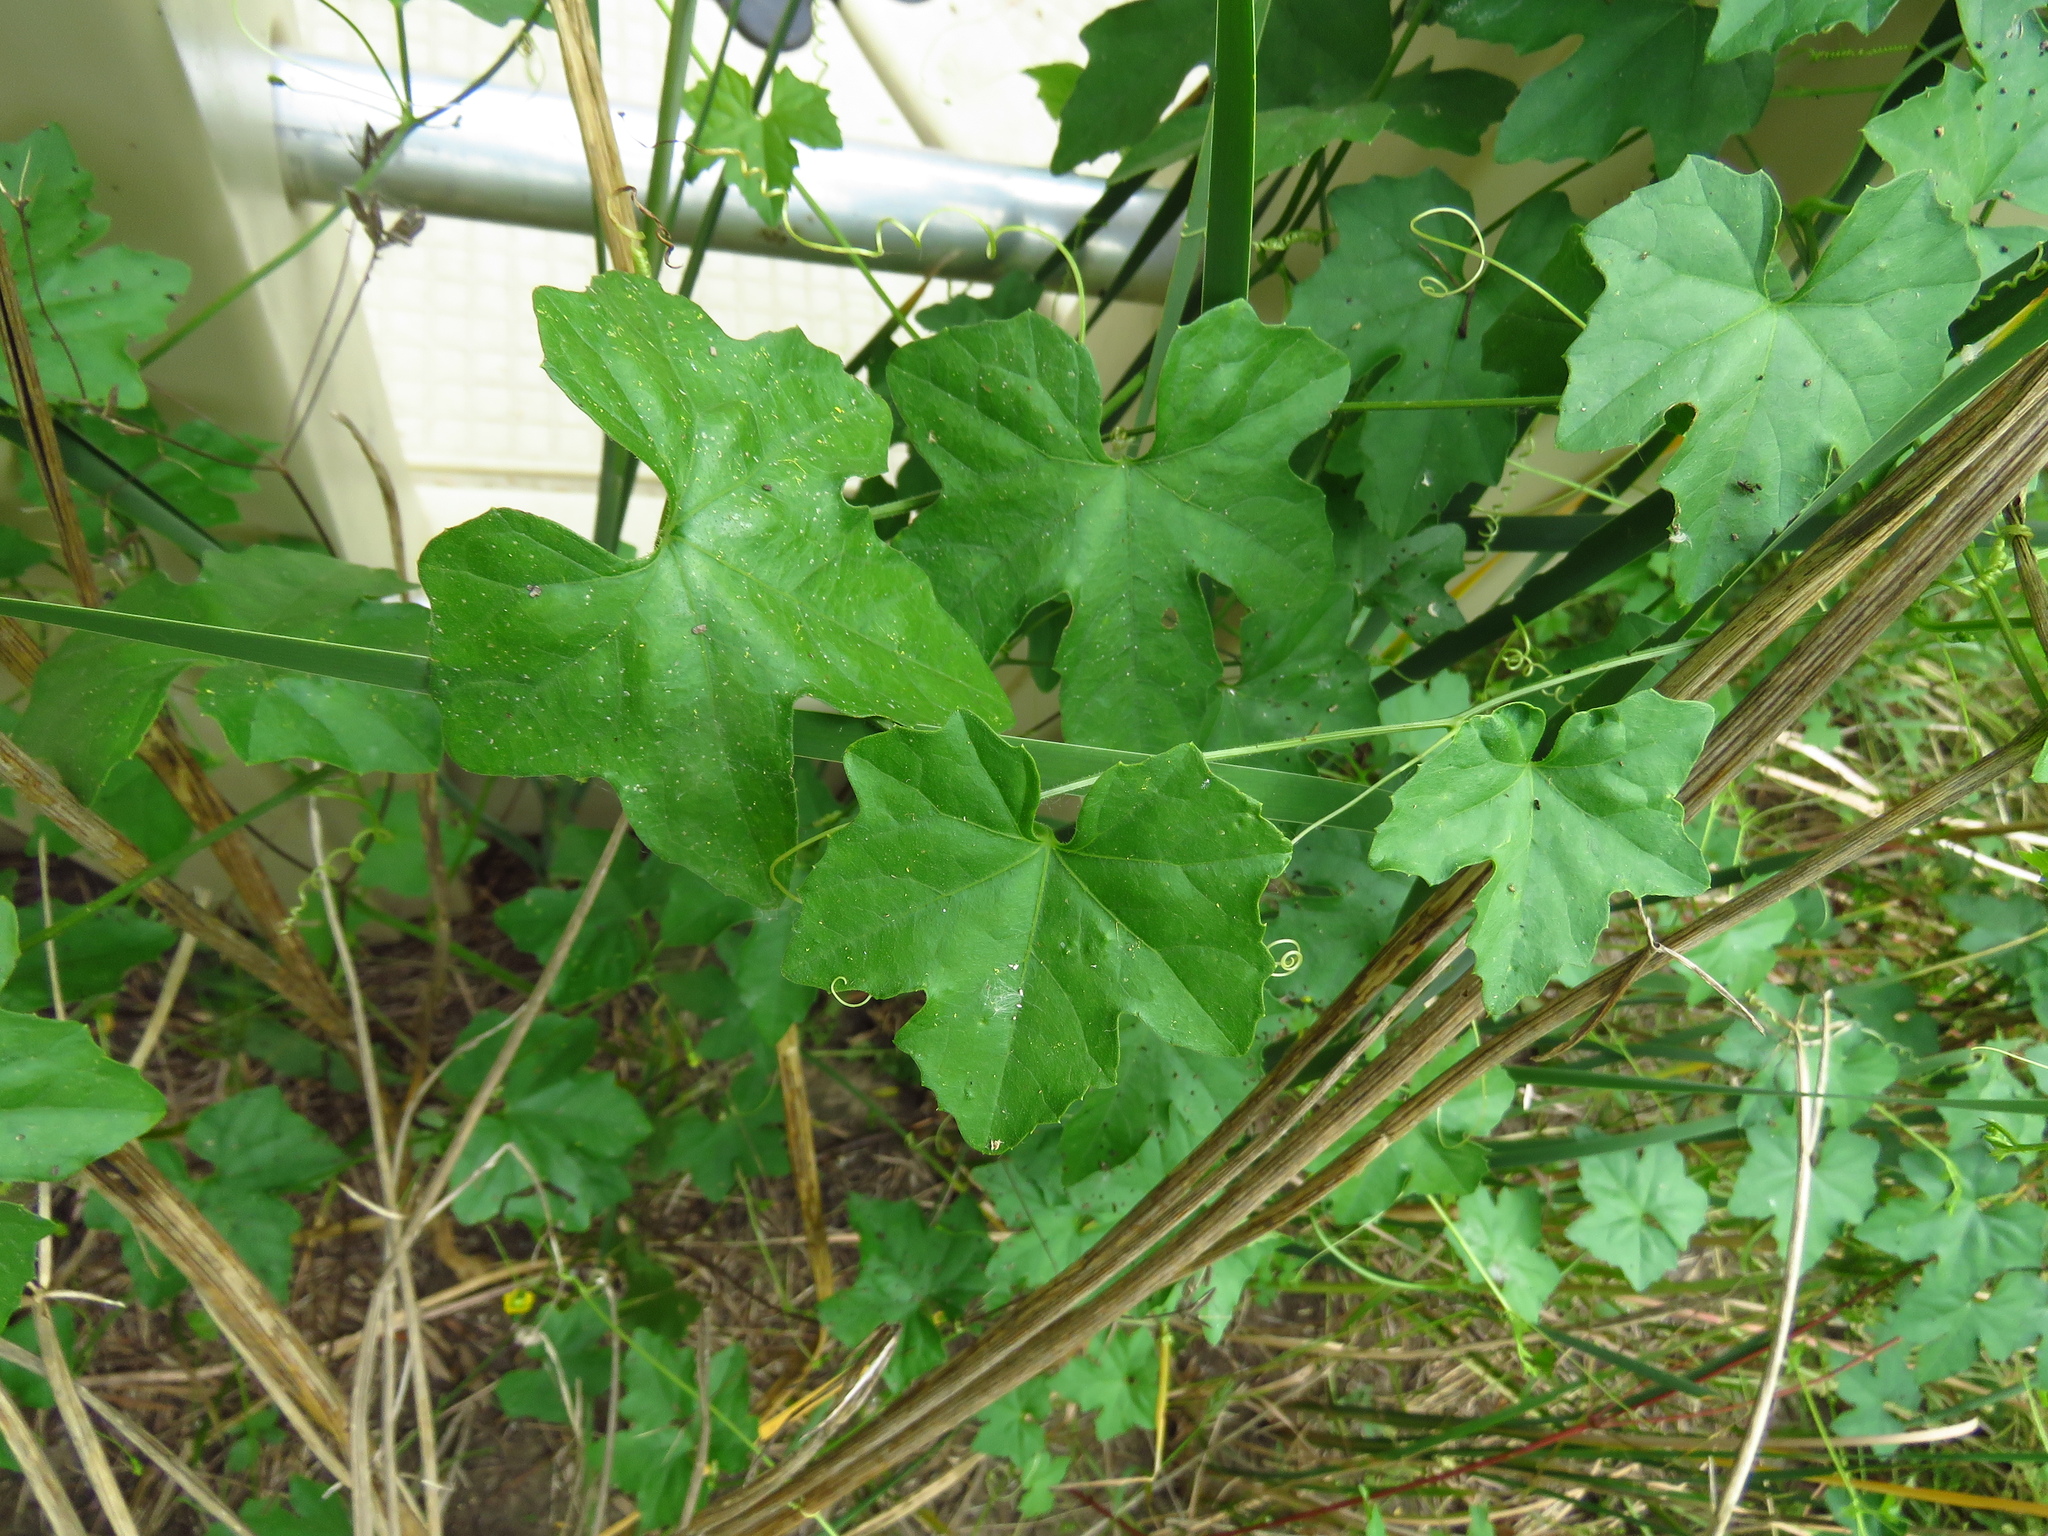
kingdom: Plantae
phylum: Tracheophyta
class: Magnoliopsida
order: Cucurbitales
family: Cucurbitaceae
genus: Melothria
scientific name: Melothria pendula
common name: Creeping-cucumber
